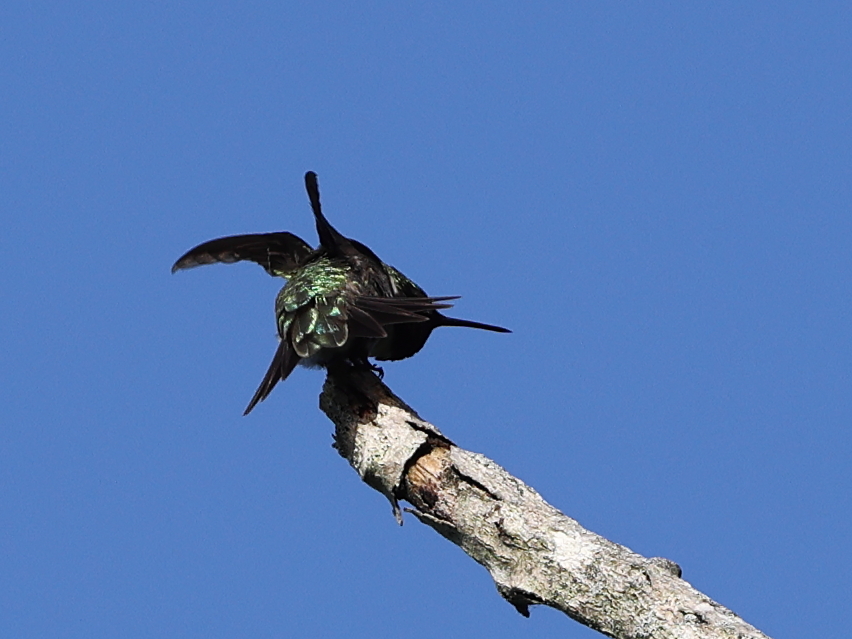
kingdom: Animalia
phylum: Chordata
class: Aves
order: Apodiformes
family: Trochilidae
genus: Archilochus
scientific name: Archilochus colubris
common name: Ruby-throated hummingbird
